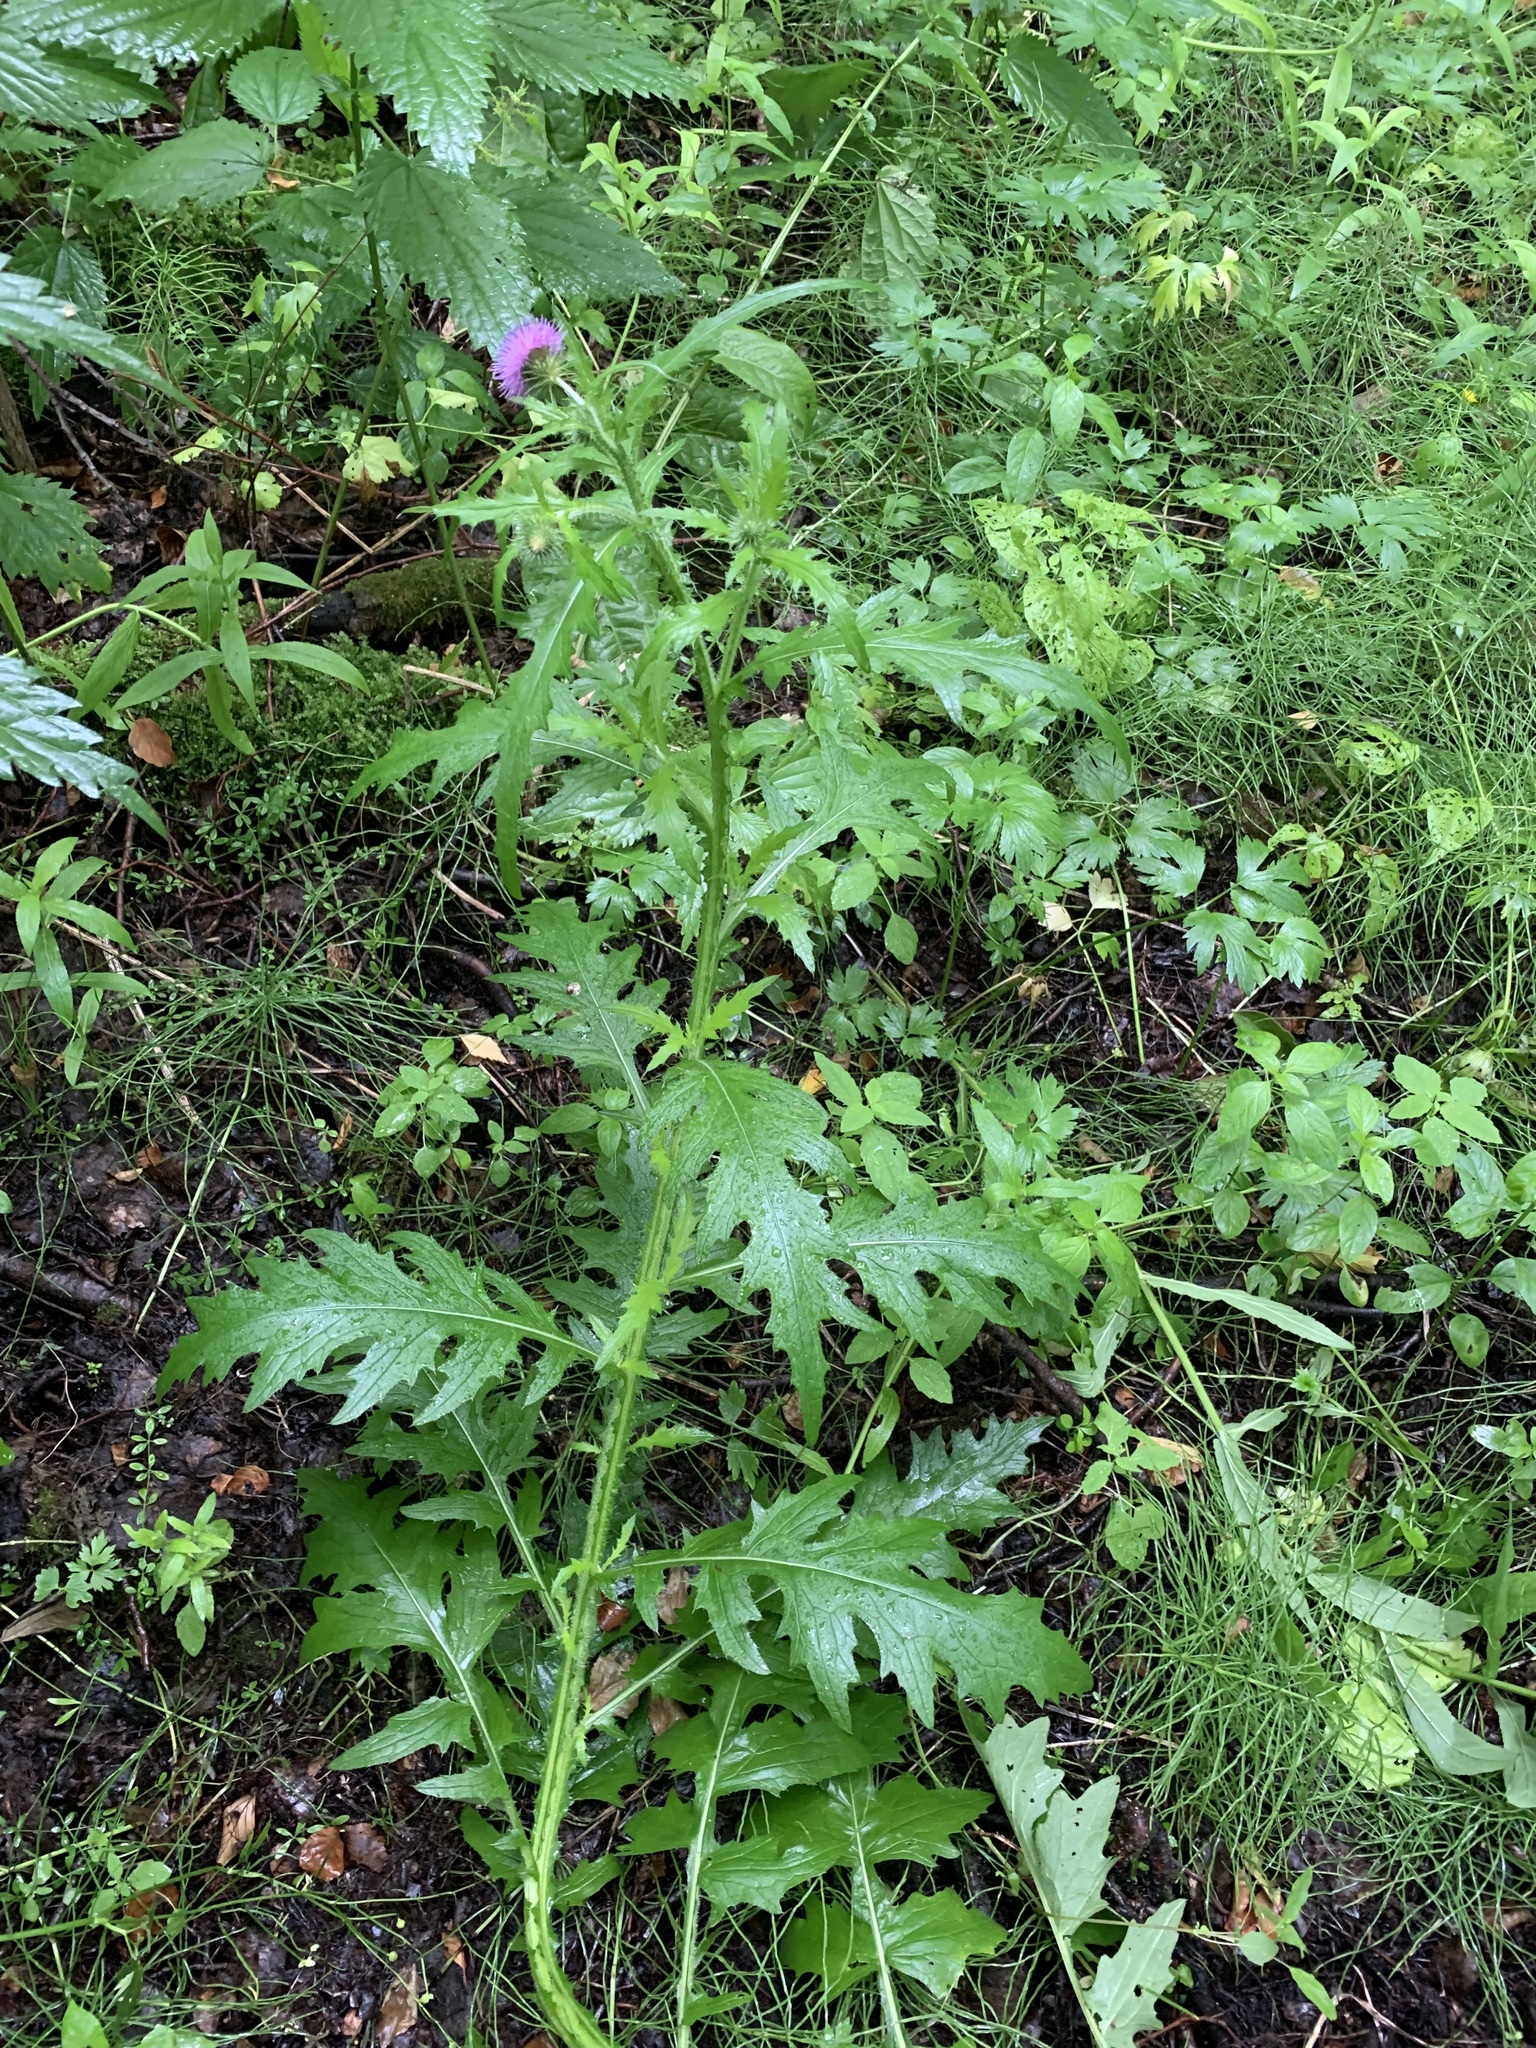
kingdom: Plantae
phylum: Tracheophyta
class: Magnoliopsida
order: Asterales
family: Asteraceae
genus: Carduus
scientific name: Carduus crispus
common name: Welted thistle
